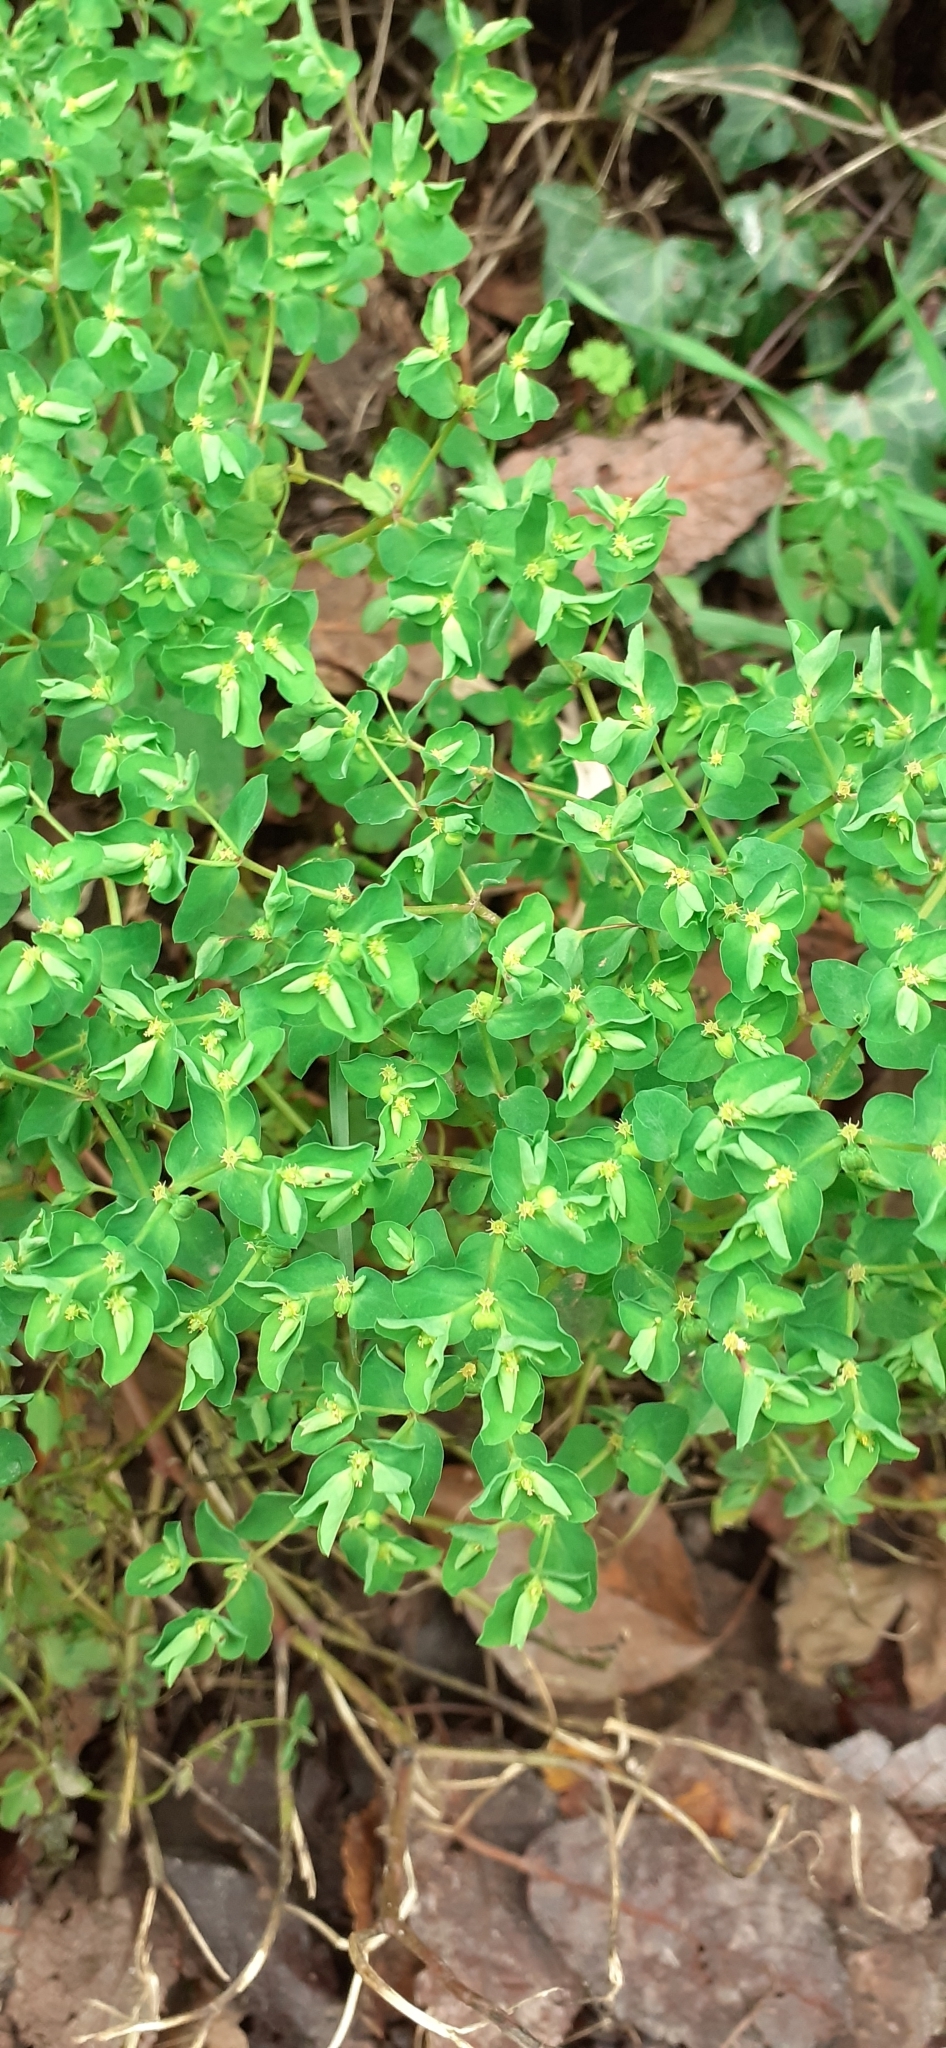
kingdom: Plantae
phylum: Tracheophyta
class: Magnoliopsida
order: Malpighiales
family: Euphorbiaceae
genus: Euphorbia
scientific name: Euphorbia peplus
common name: Petty spurge
